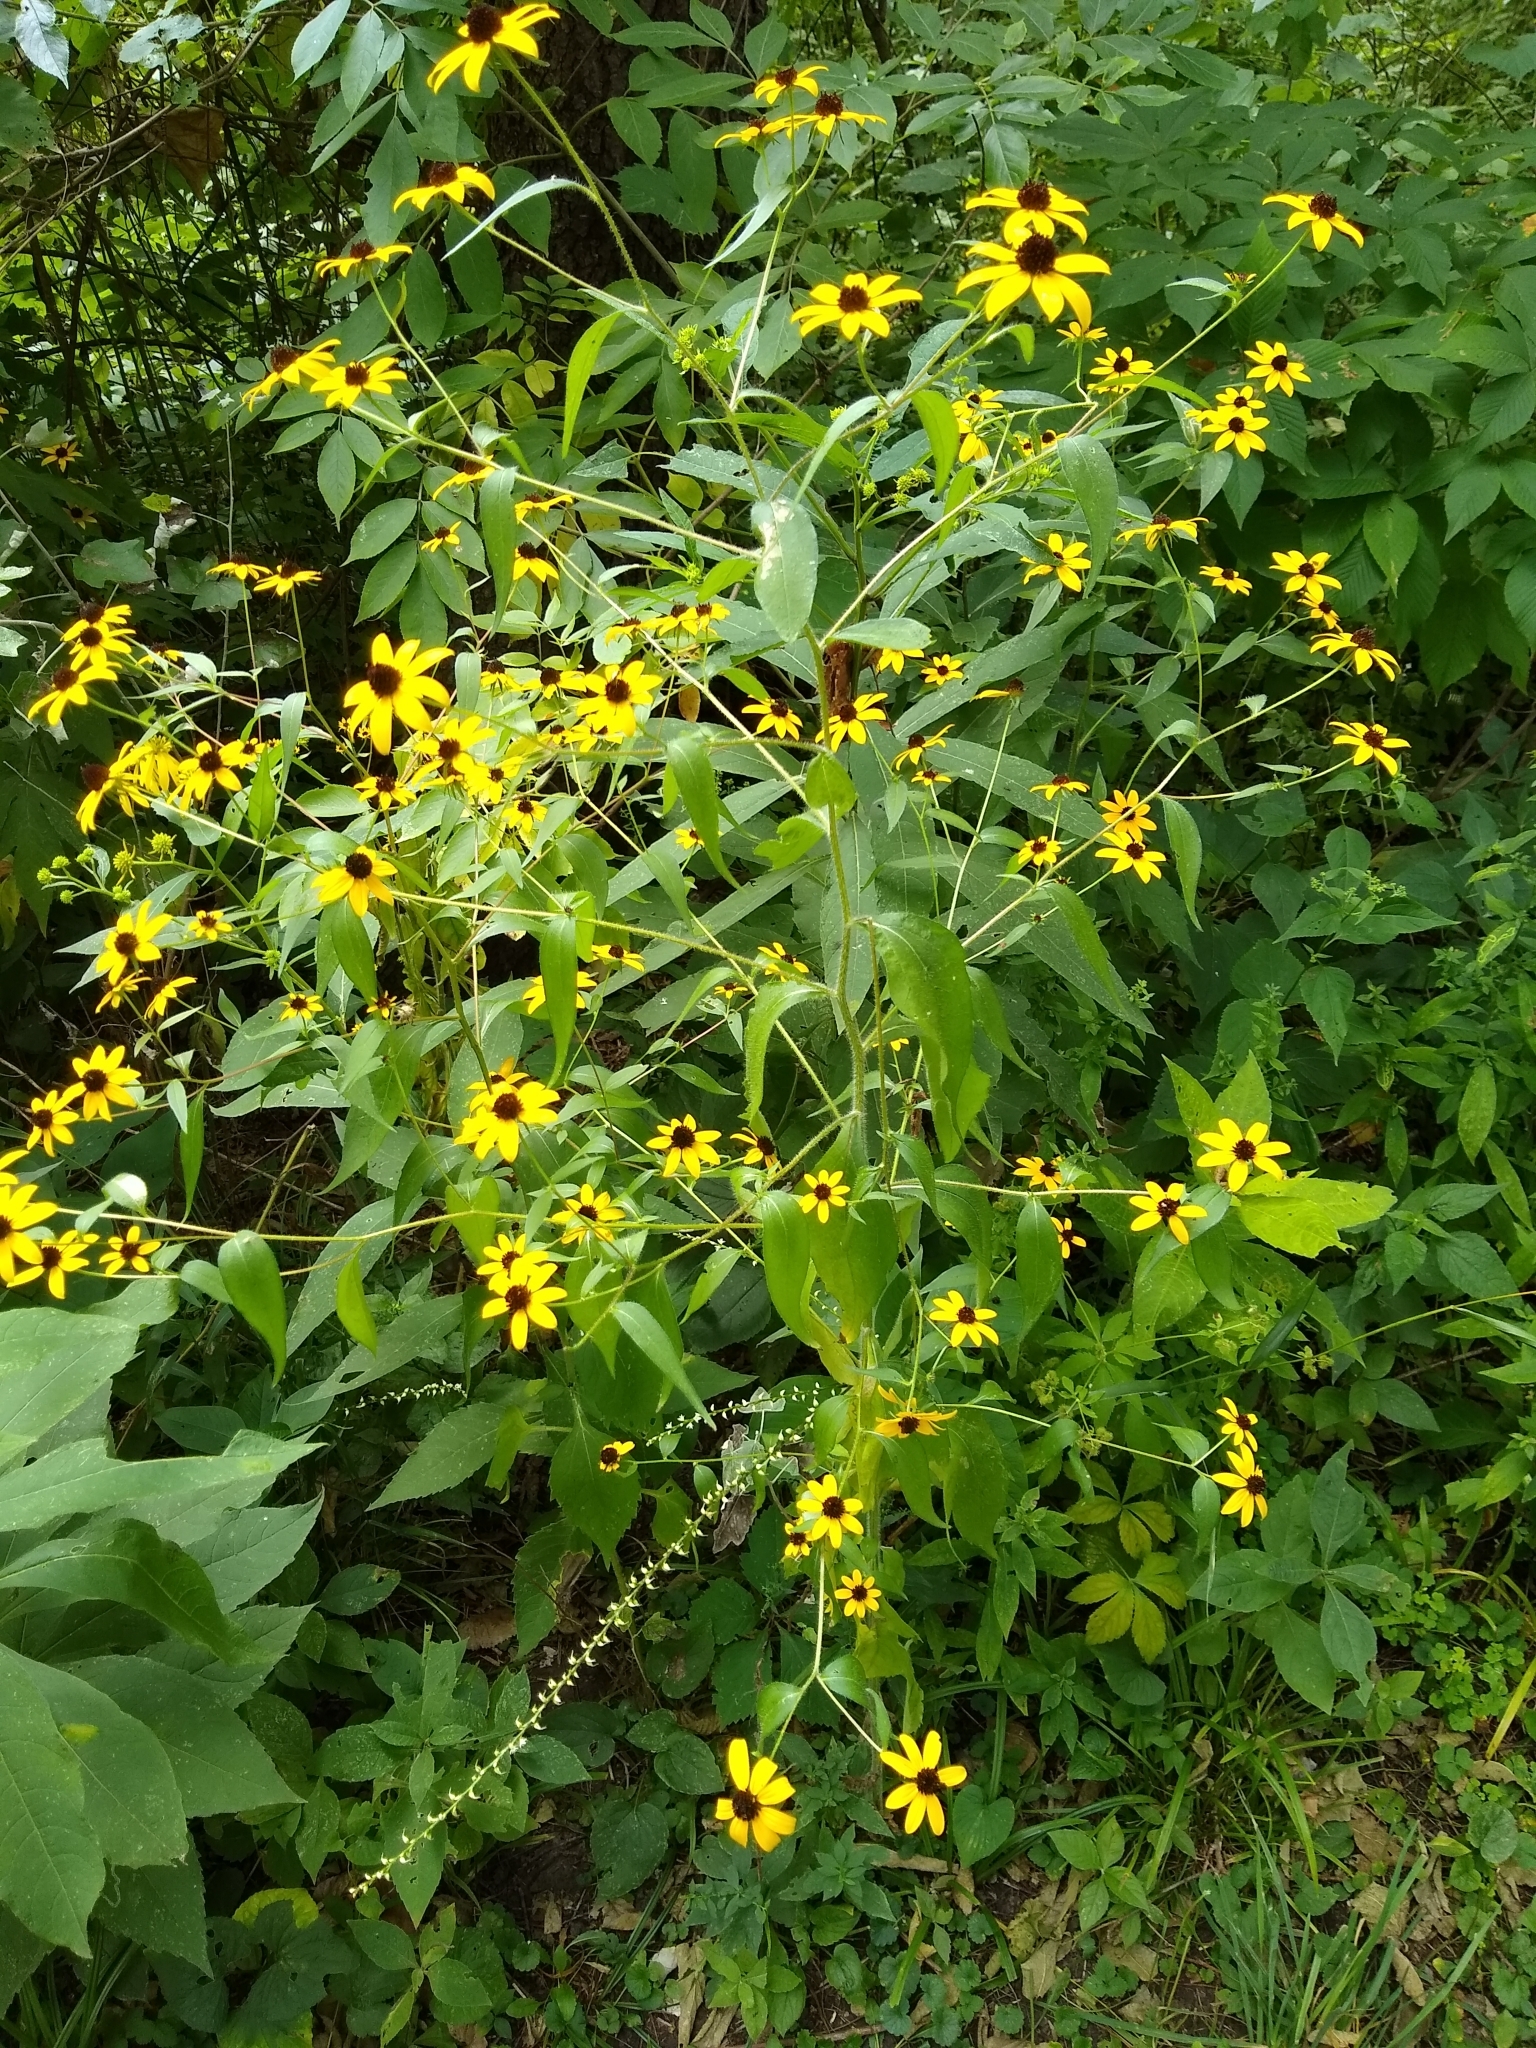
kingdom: Plantae
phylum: Tracheophyta
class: Magnoliopsida
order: Asterales
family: Asteraceae
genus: Rudbeckia
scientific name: Rudbeckia triloba
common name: Thin-leaved coneflower
